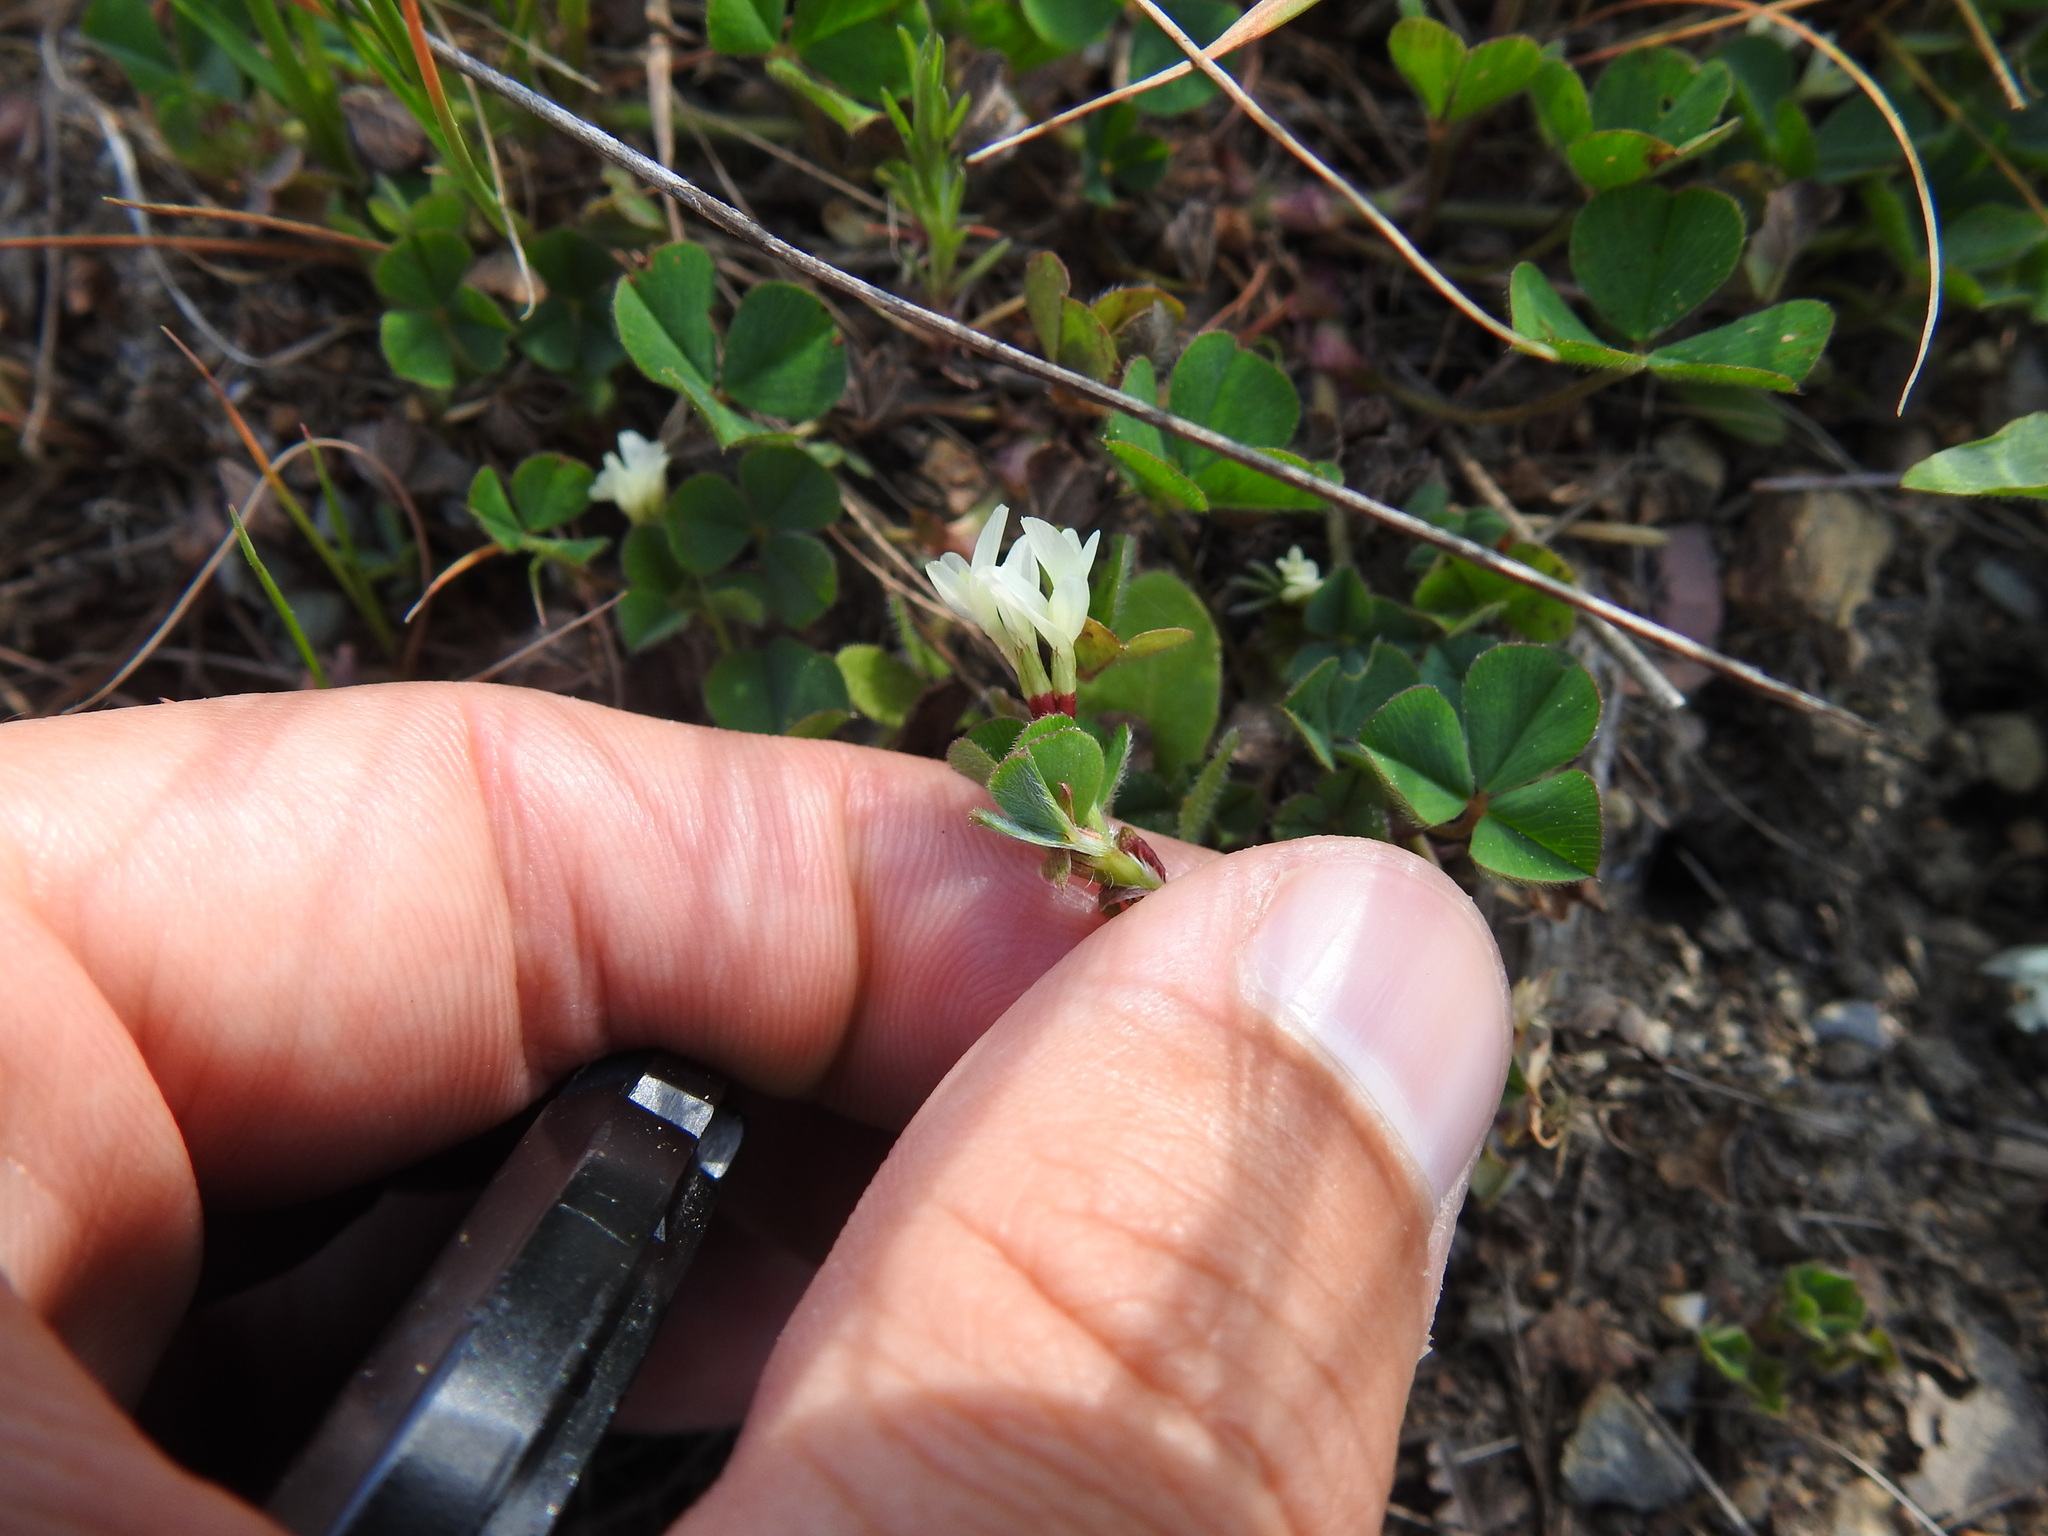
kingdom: Plantae
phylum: Tracheophyta
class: Magnoliopsida
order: Fabales
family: Fabaceae
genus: Trifolium
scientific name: Trifolium subterraneum
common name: Subterranean clover
